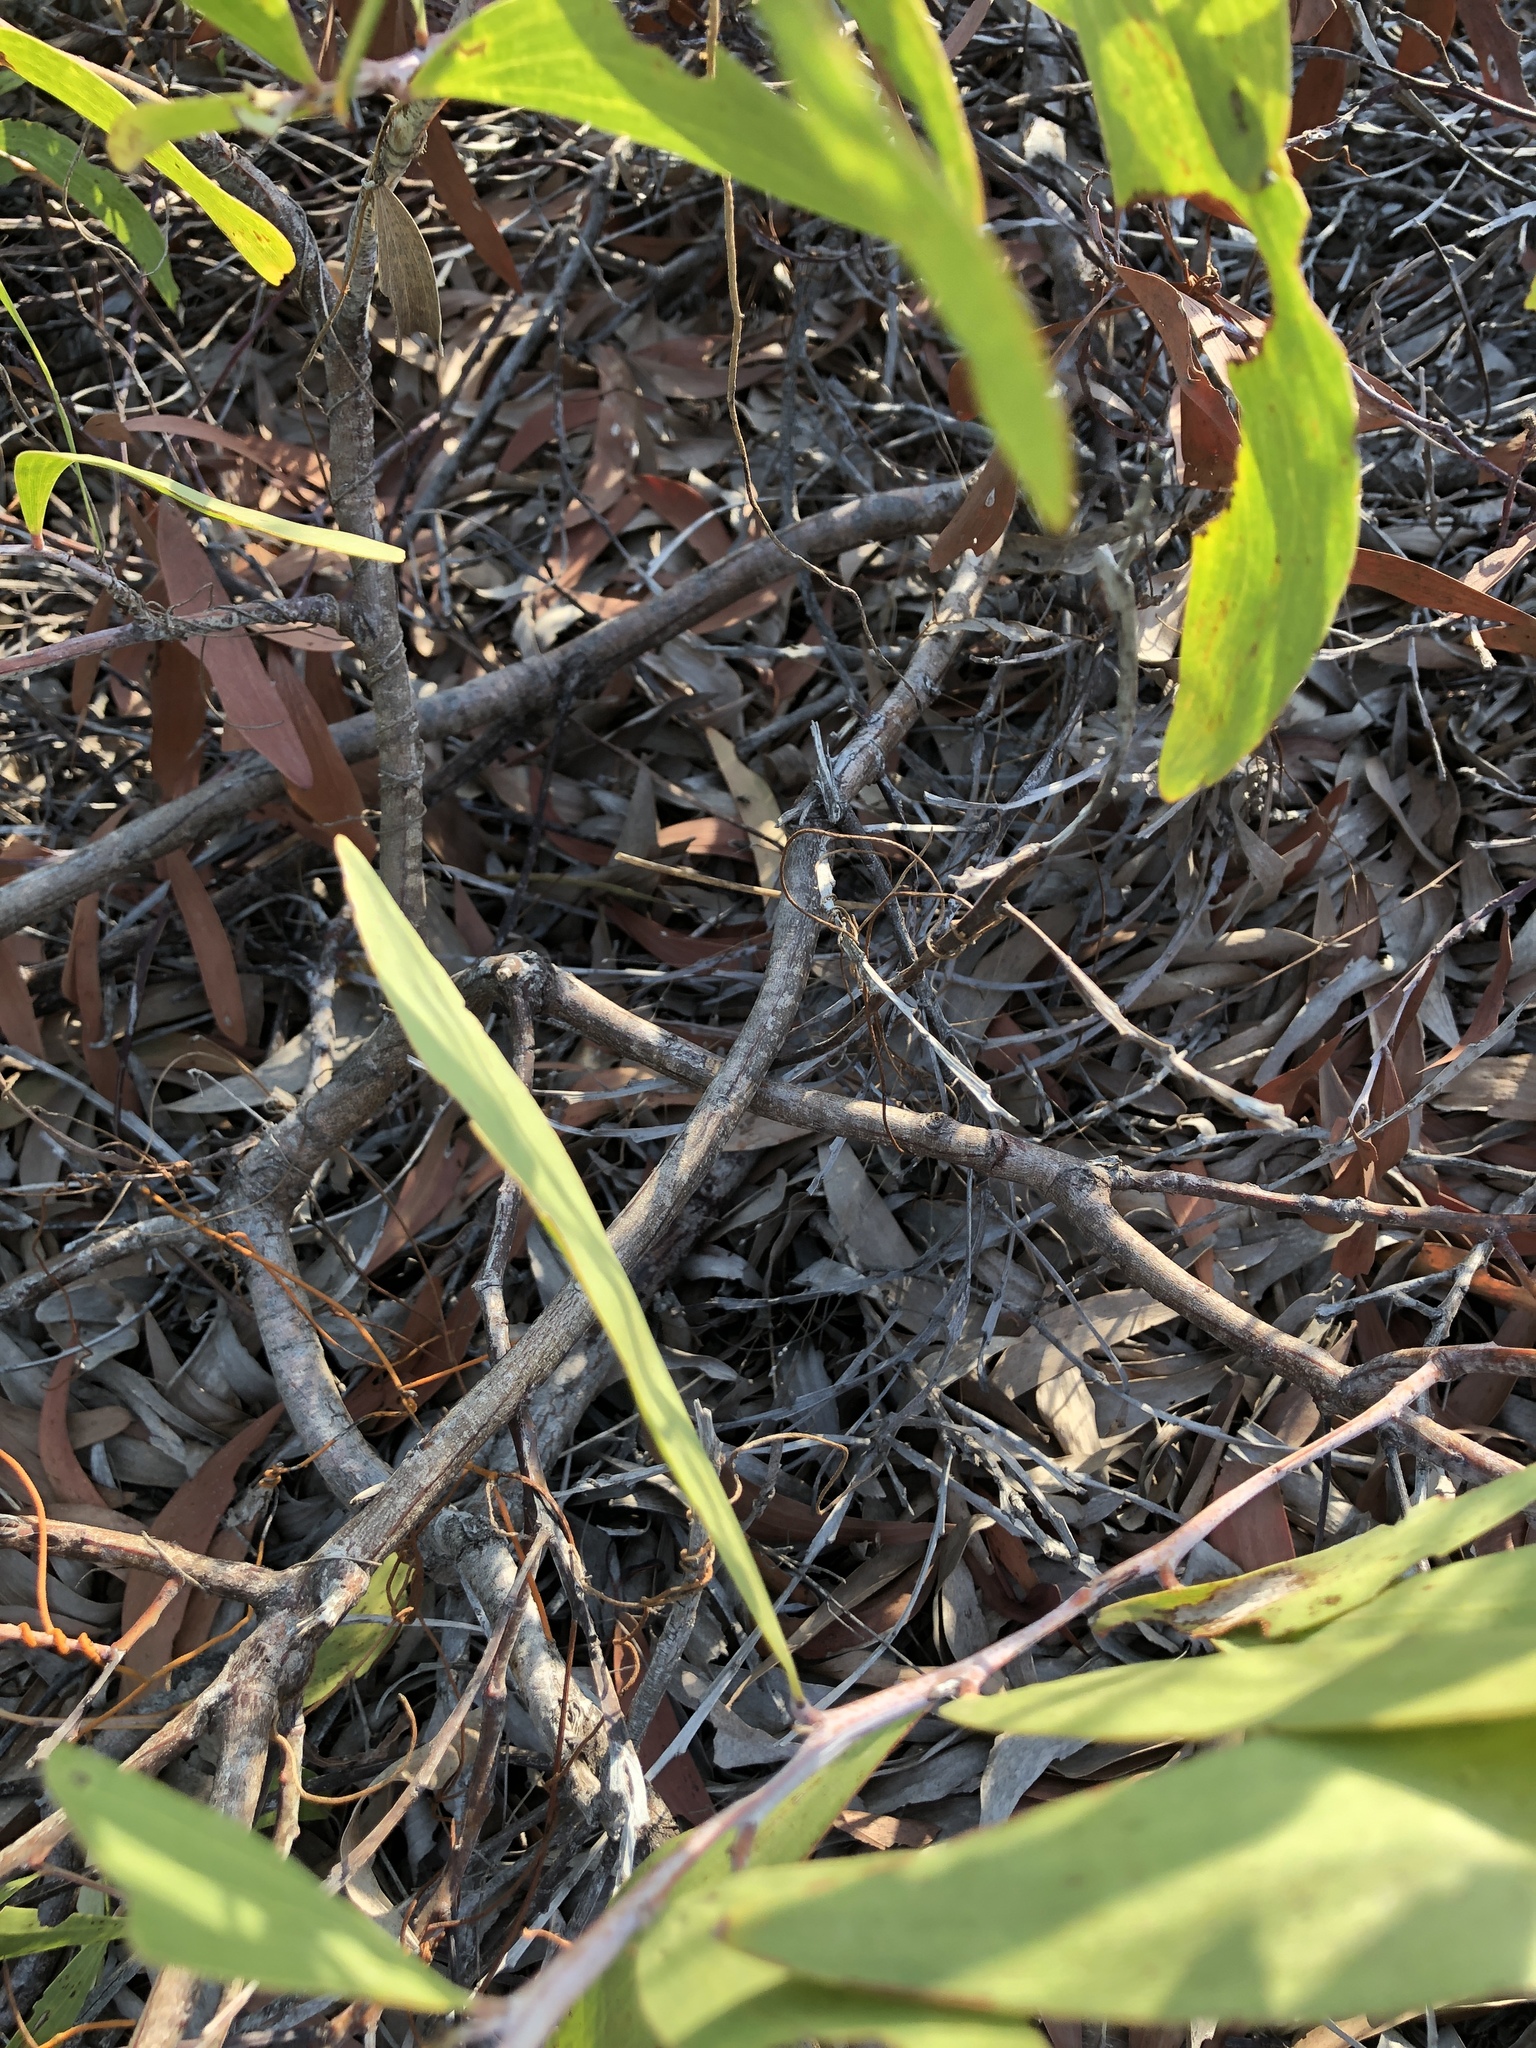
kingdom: Plantae
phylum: Tracheophyta
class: Magnoliopsida
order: Fabales
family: Fabaceae
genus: Acacia
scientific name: Acacia leiocalyx
